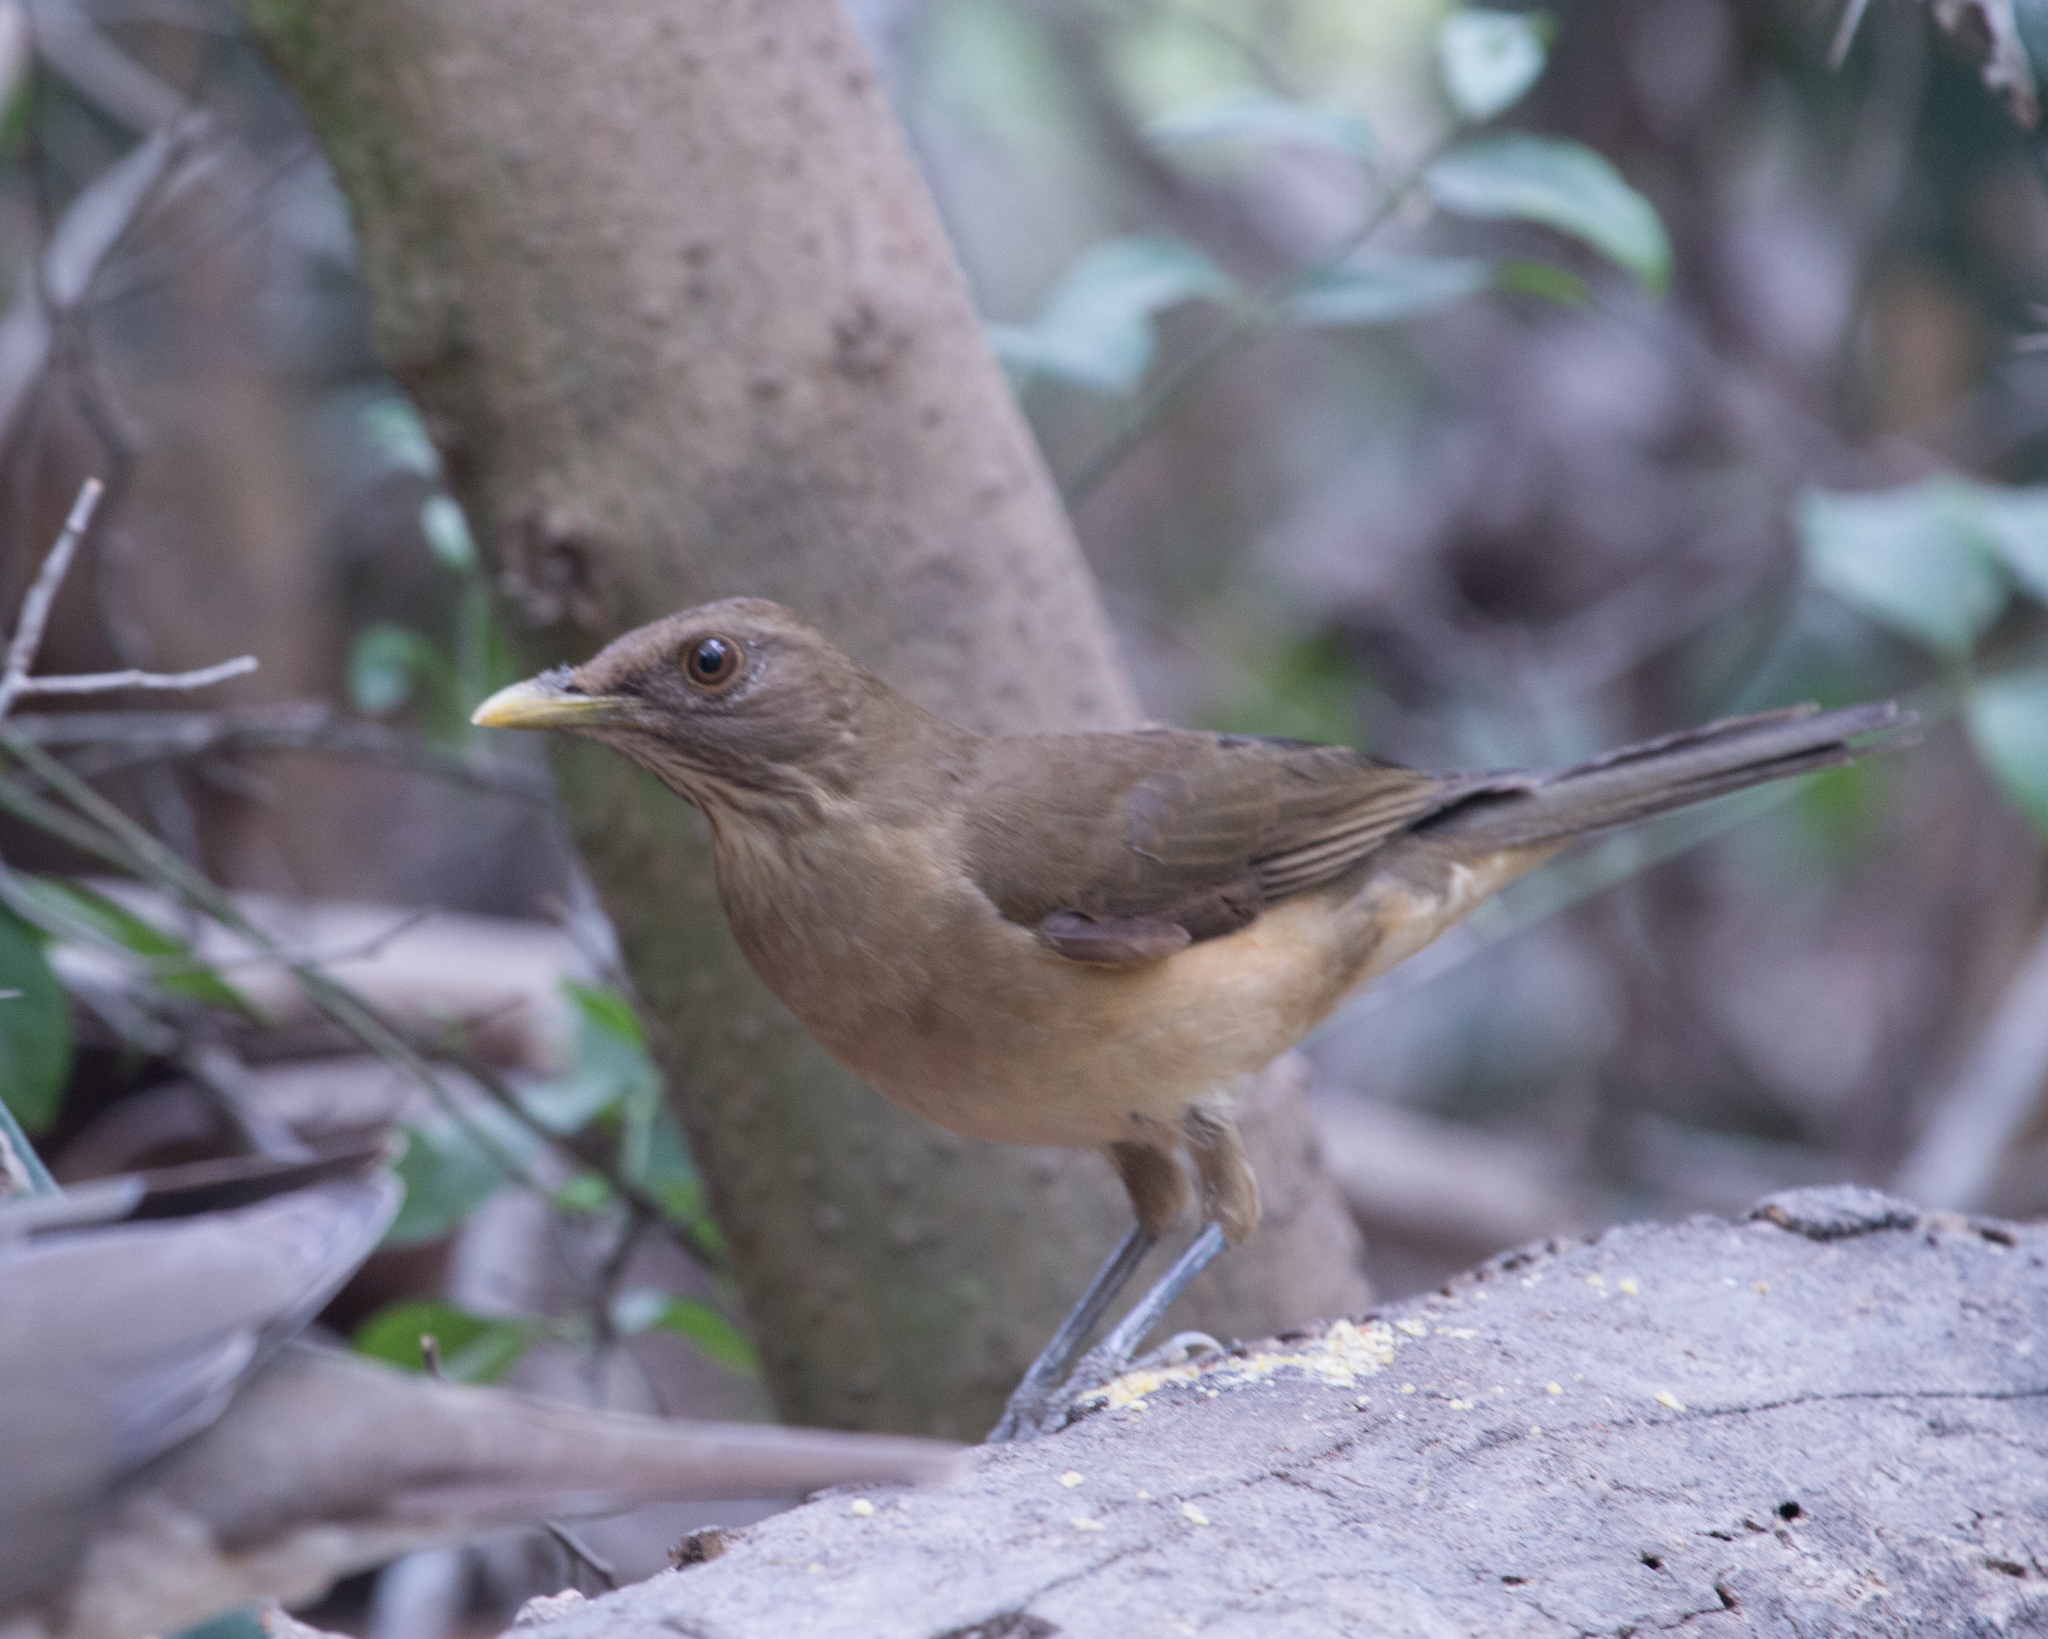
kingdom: Animalia
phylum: Chordata
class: Aves
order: Passeriformes
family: Turdidae
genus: Turdus
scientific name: Turdus grayi
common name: Clay-colored thrush
